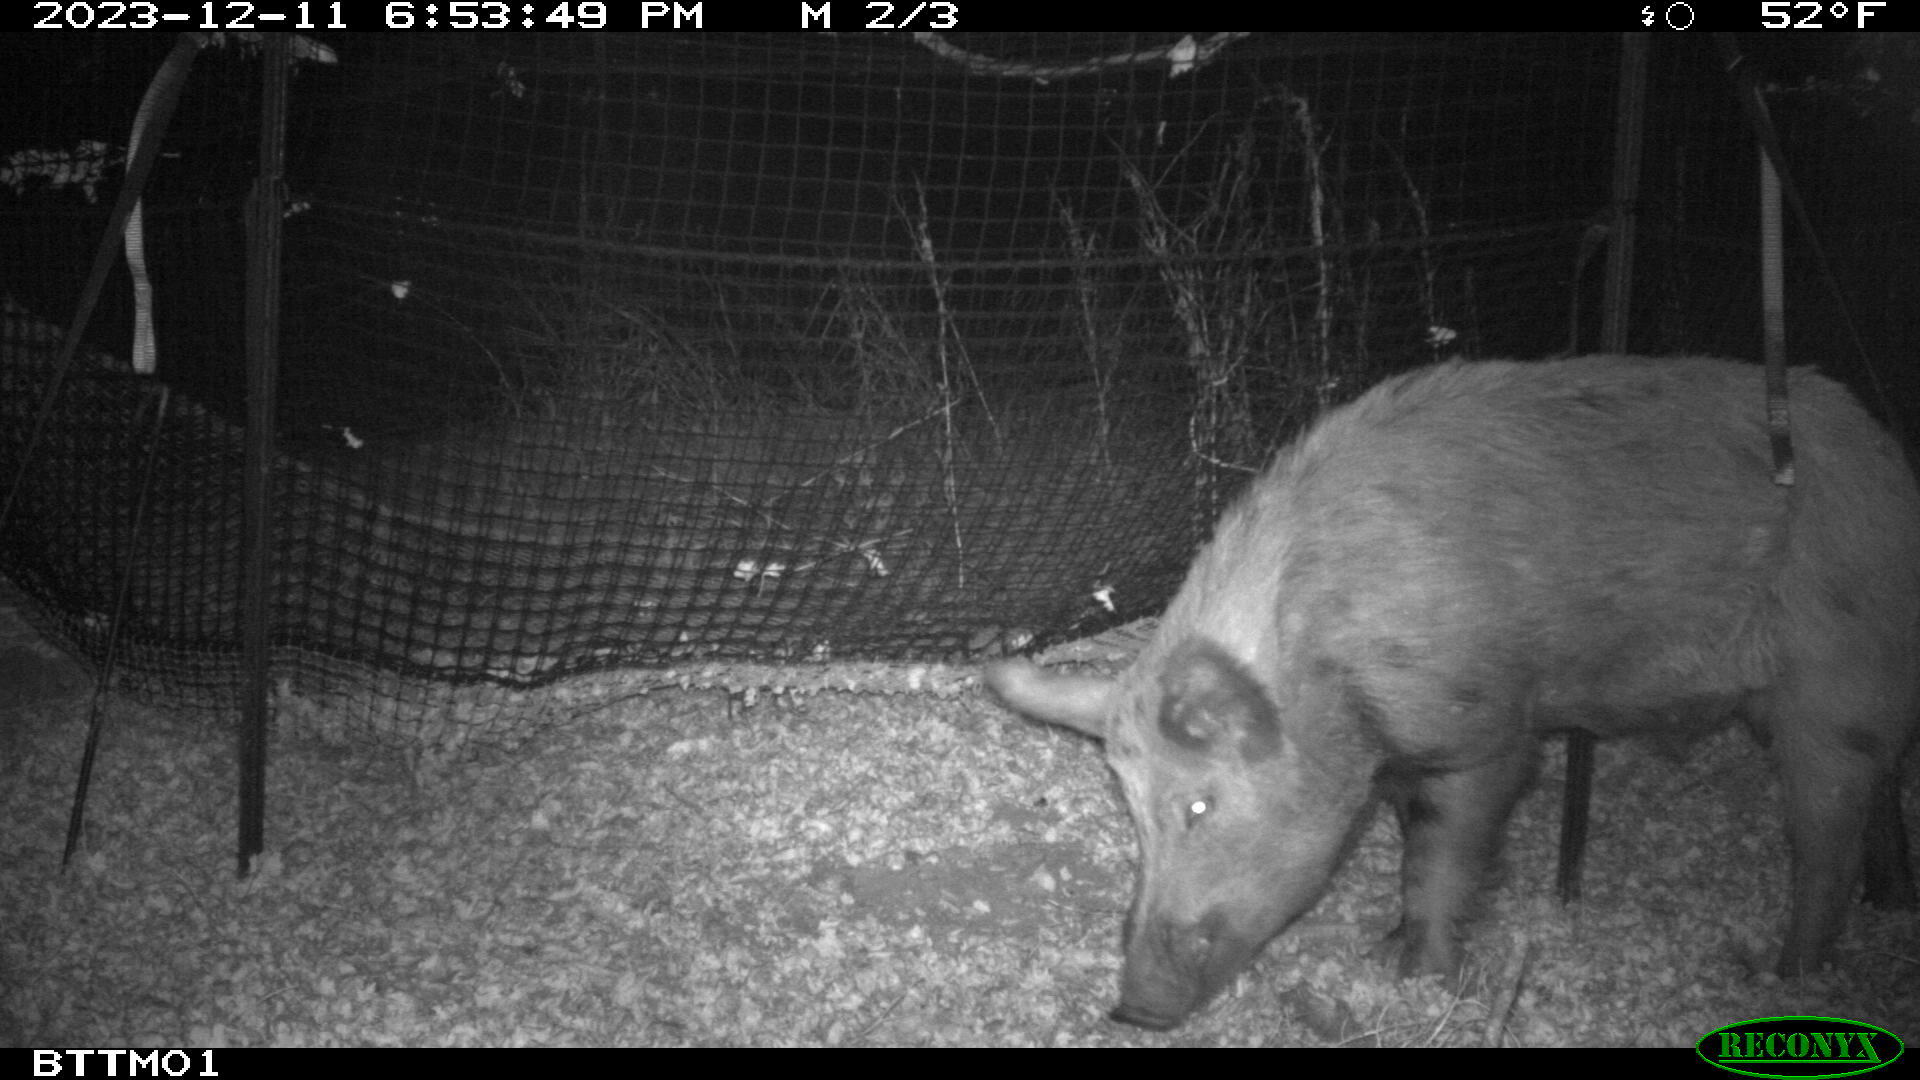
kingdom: Animalia
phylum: Chordata
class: Mammalia
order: Artiodactyla
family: Suidae
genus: Sus
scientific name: Sus scrofa
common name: Wild boar
